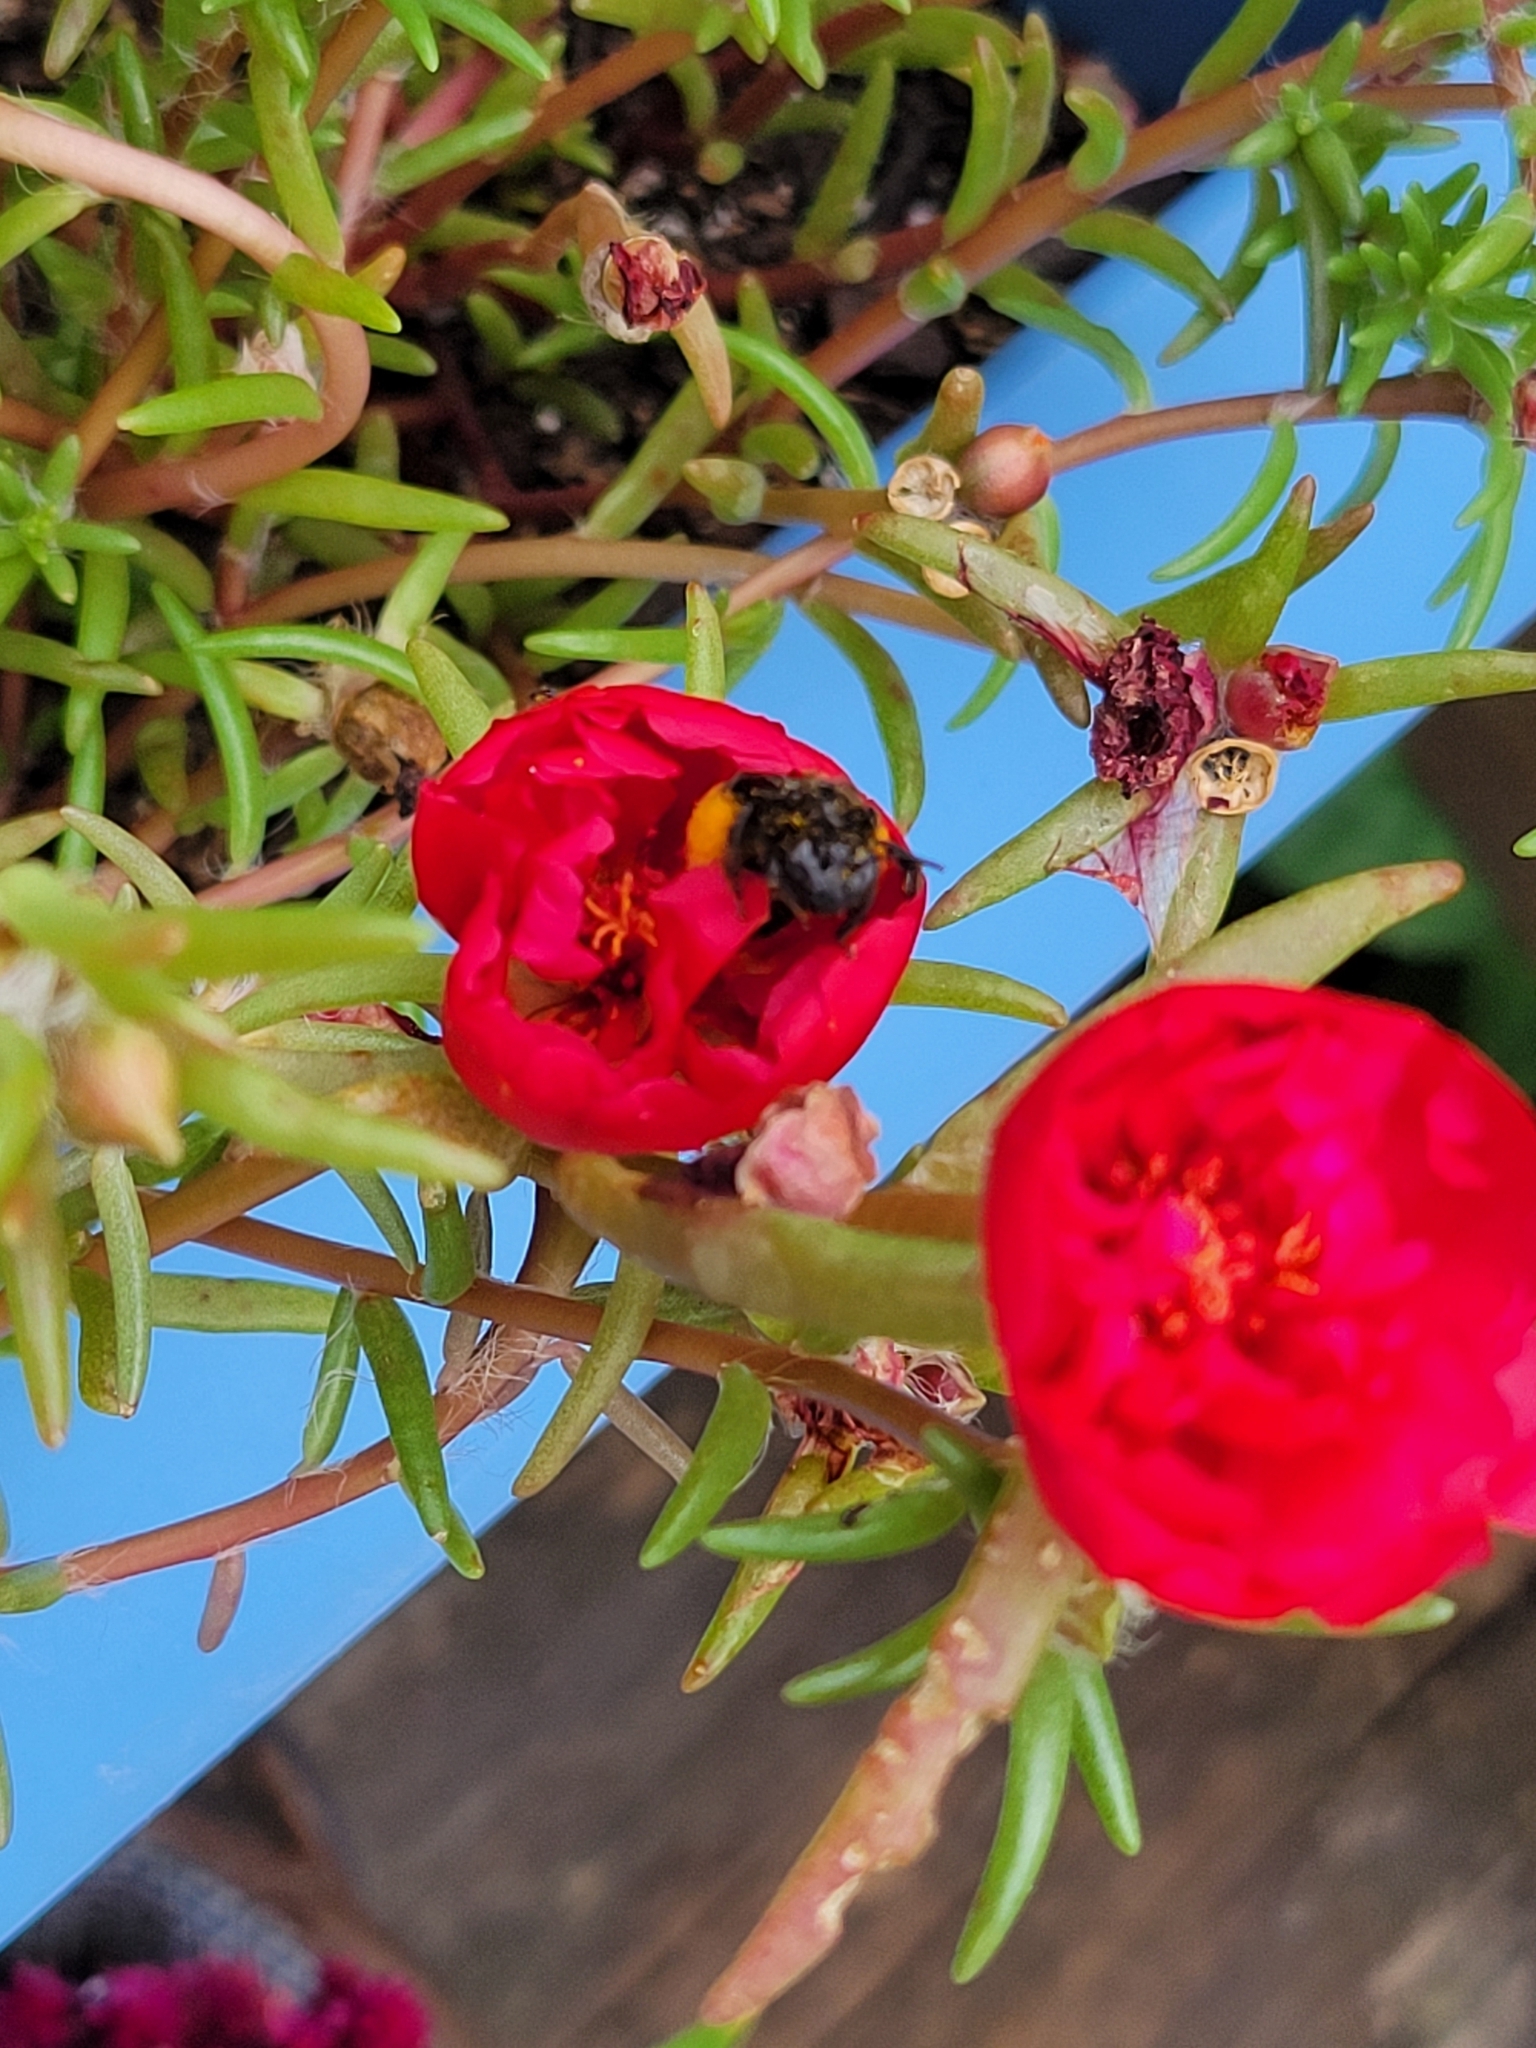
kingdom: Animalia
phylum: Arthropoda
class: Insecta
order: Hymenoptera
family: Apidae
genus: Melissodes
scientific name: Melissodes bimaculatus
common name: Two-spotted long-horned bee
